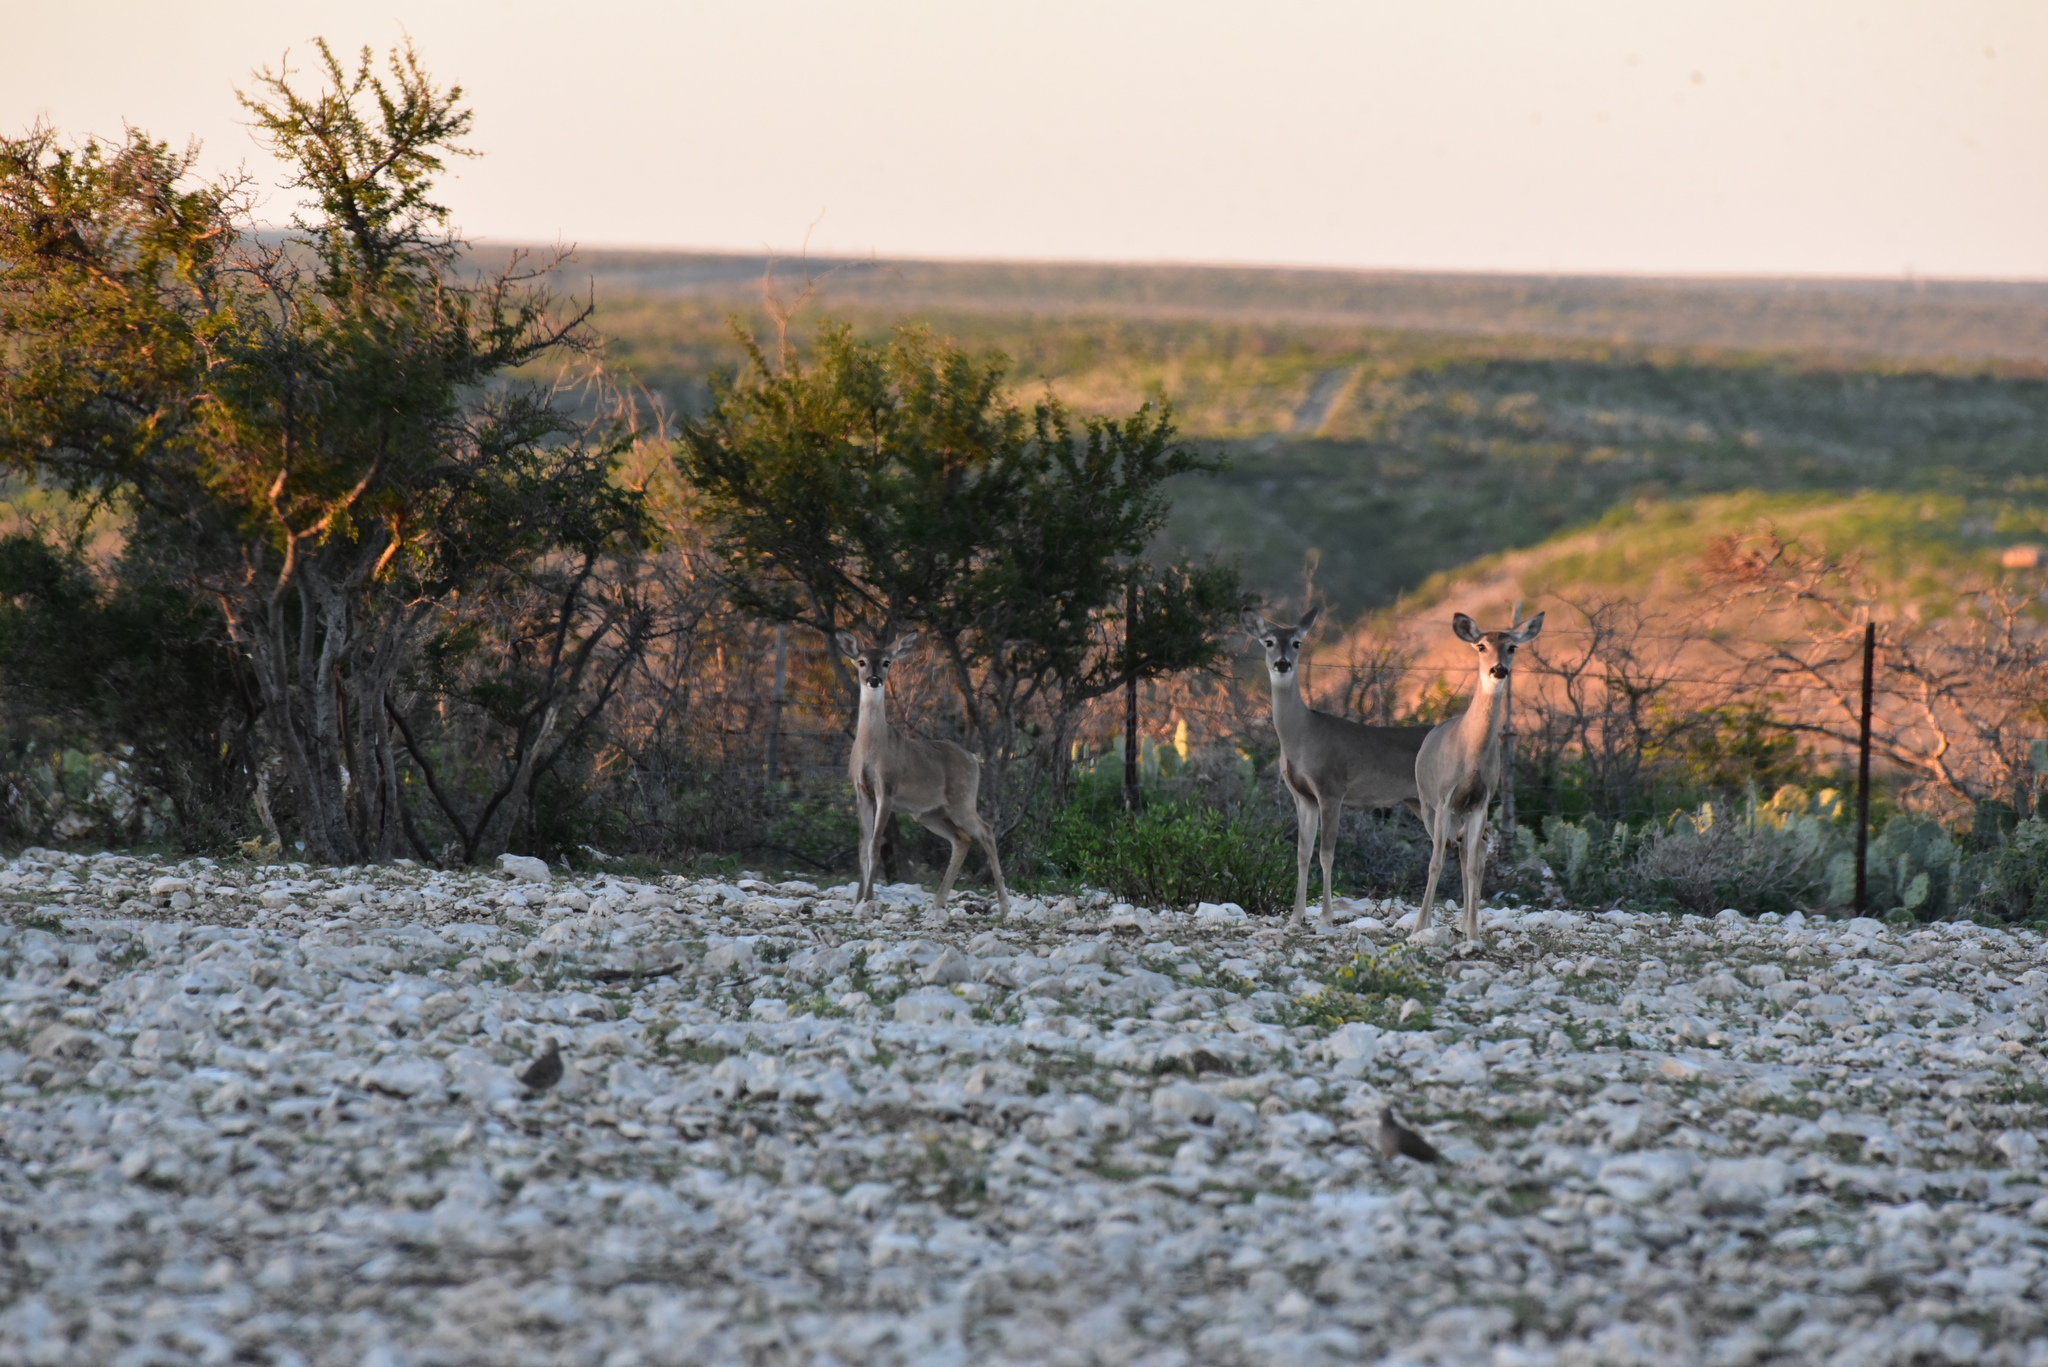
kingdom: Animalia
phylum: Chordata
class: Mammalia
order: Artiodactyla
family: Cervidae
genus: Odocoileus
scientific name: Odocoileus virginianus
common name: White-tailed deer
